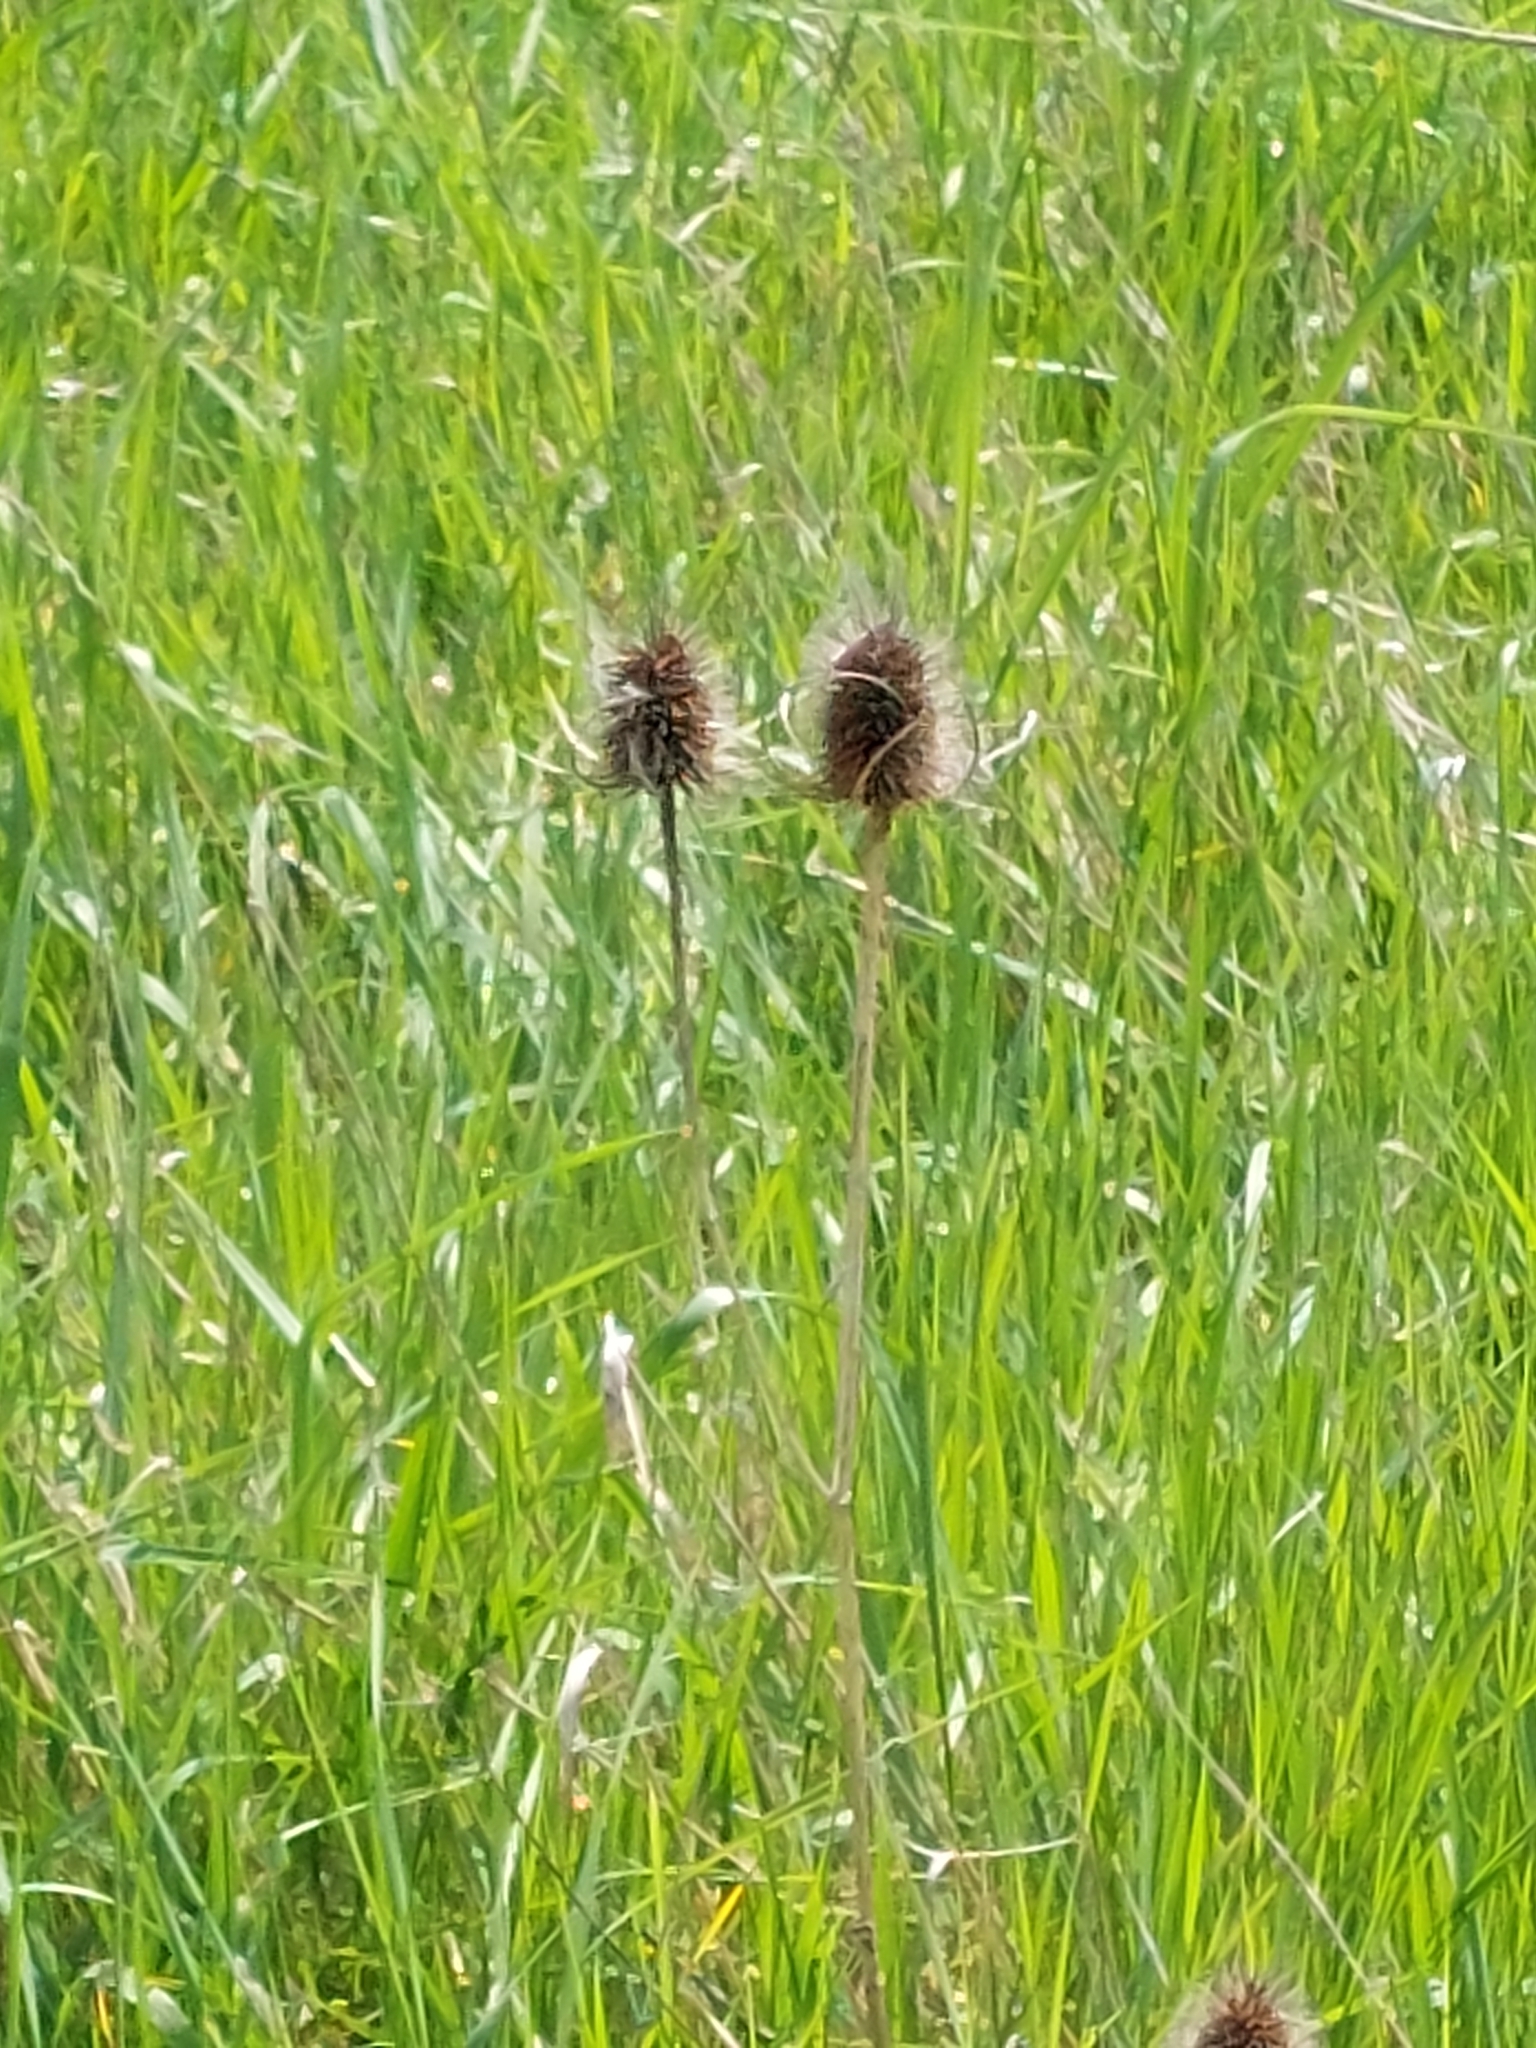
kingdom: Plantae
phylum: Tracheophyta
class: Magnoliopsida
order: Dipsacales
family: Caprifoliaceae
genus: Dipsacus
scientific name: Dipsacus fullonum
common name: Teasel
